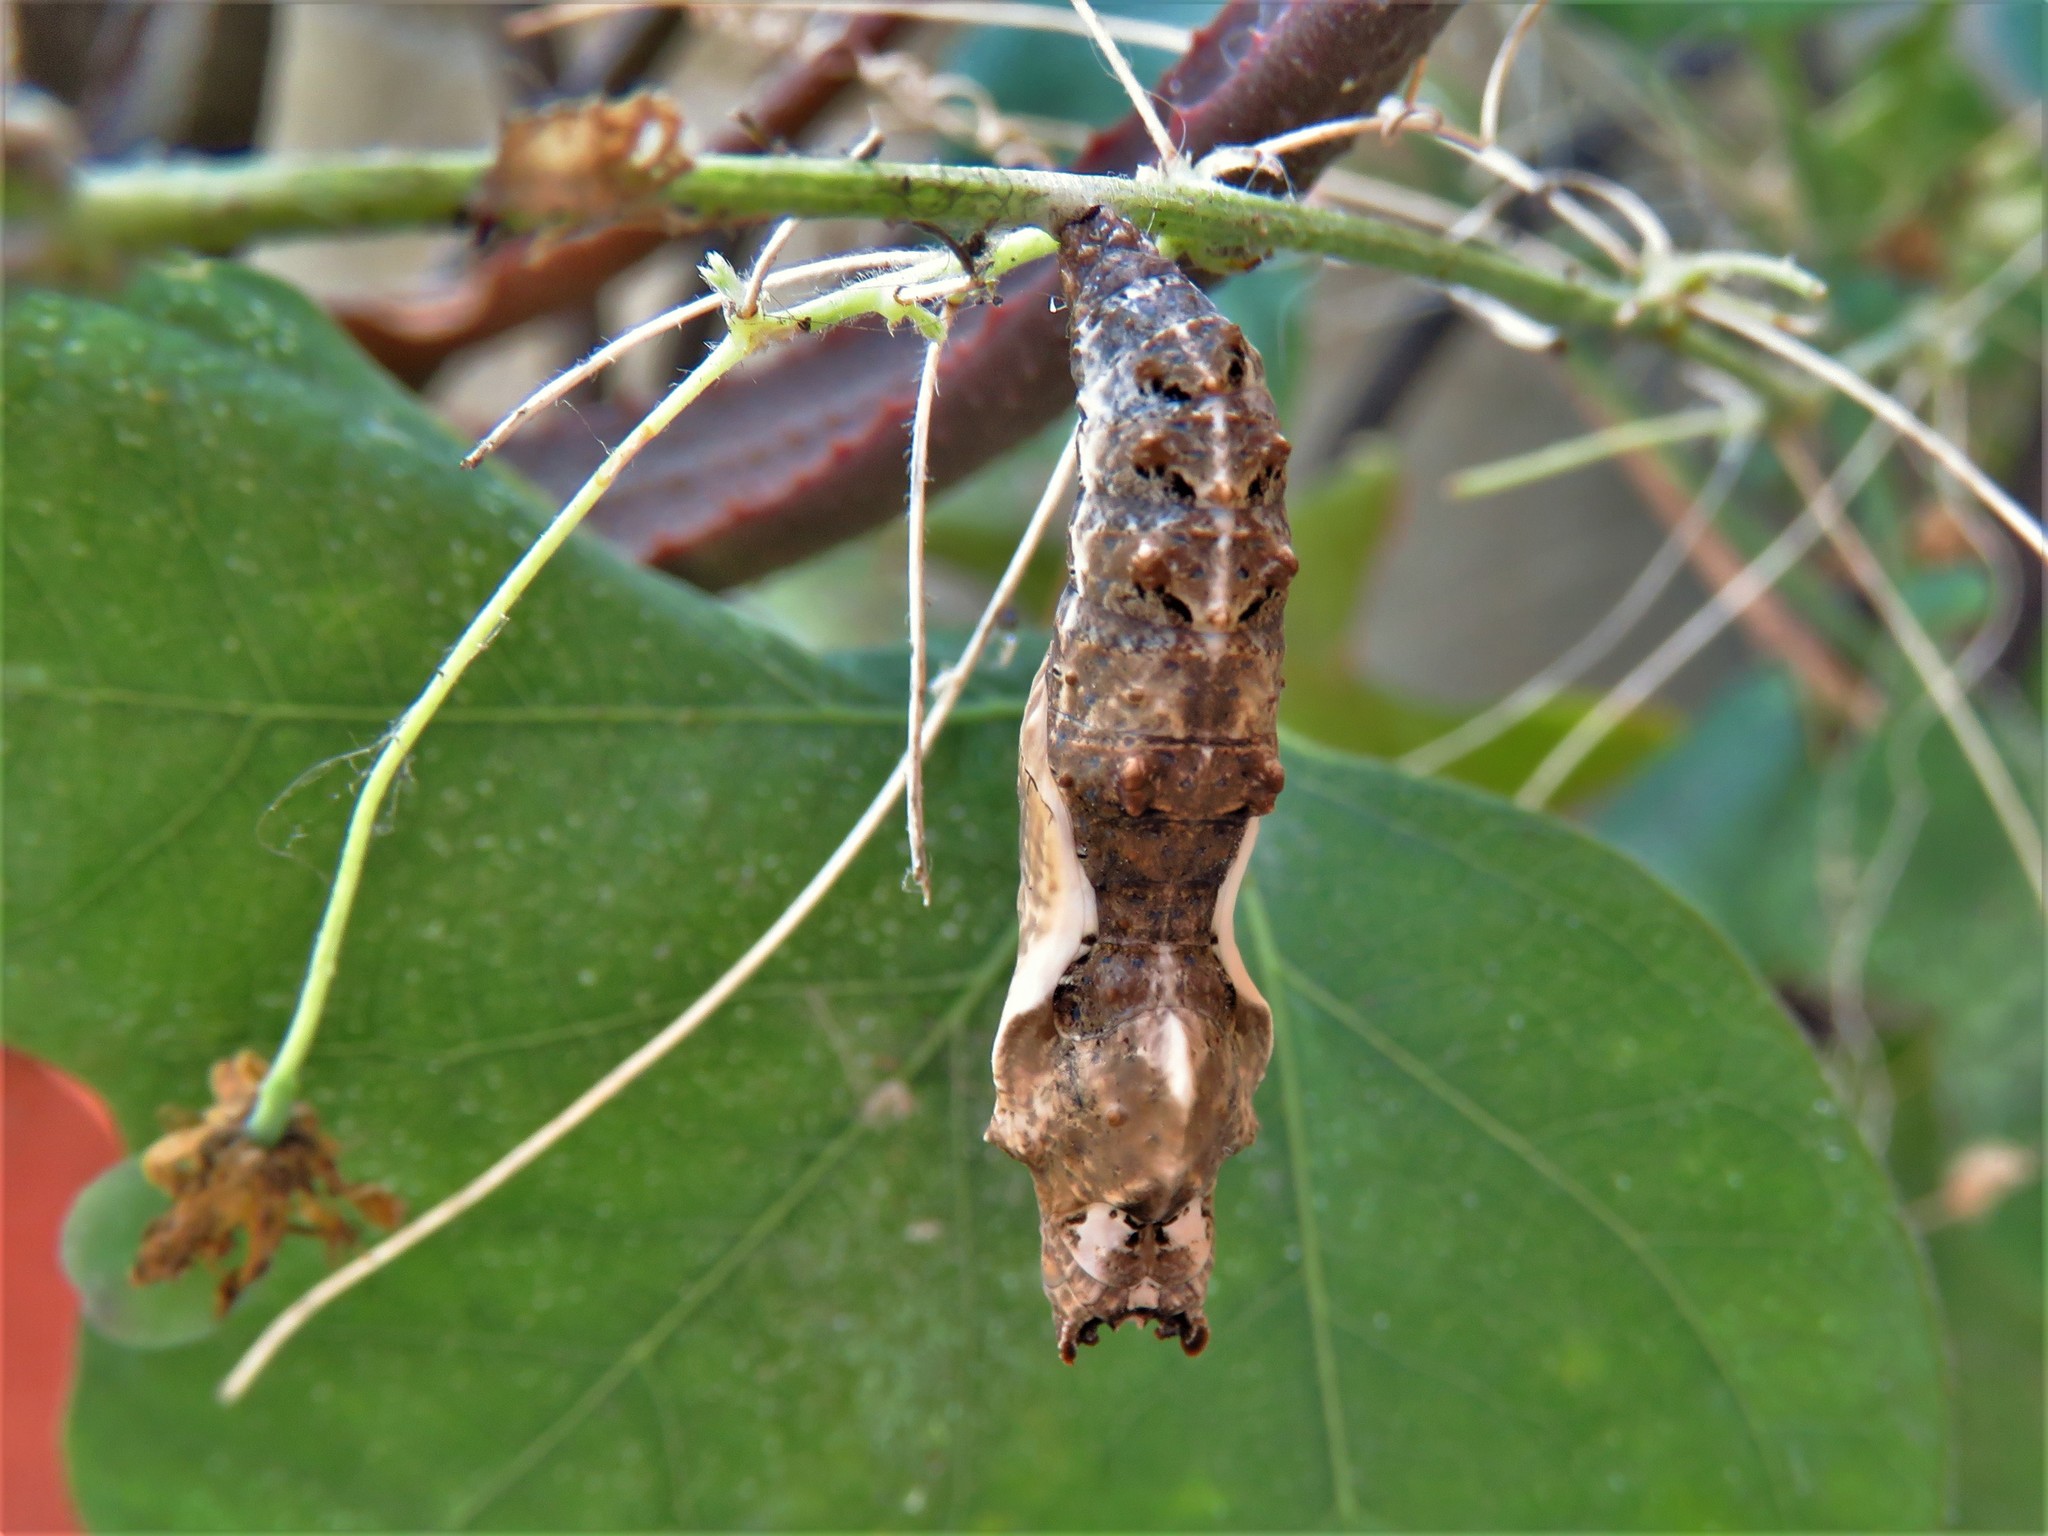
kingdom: Animalia
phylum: Arthropoda
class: Insecta
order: Lepidoptera
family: Nymphalidae
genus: Dione
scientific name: Dione vanillae
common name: Gulf fritillary
